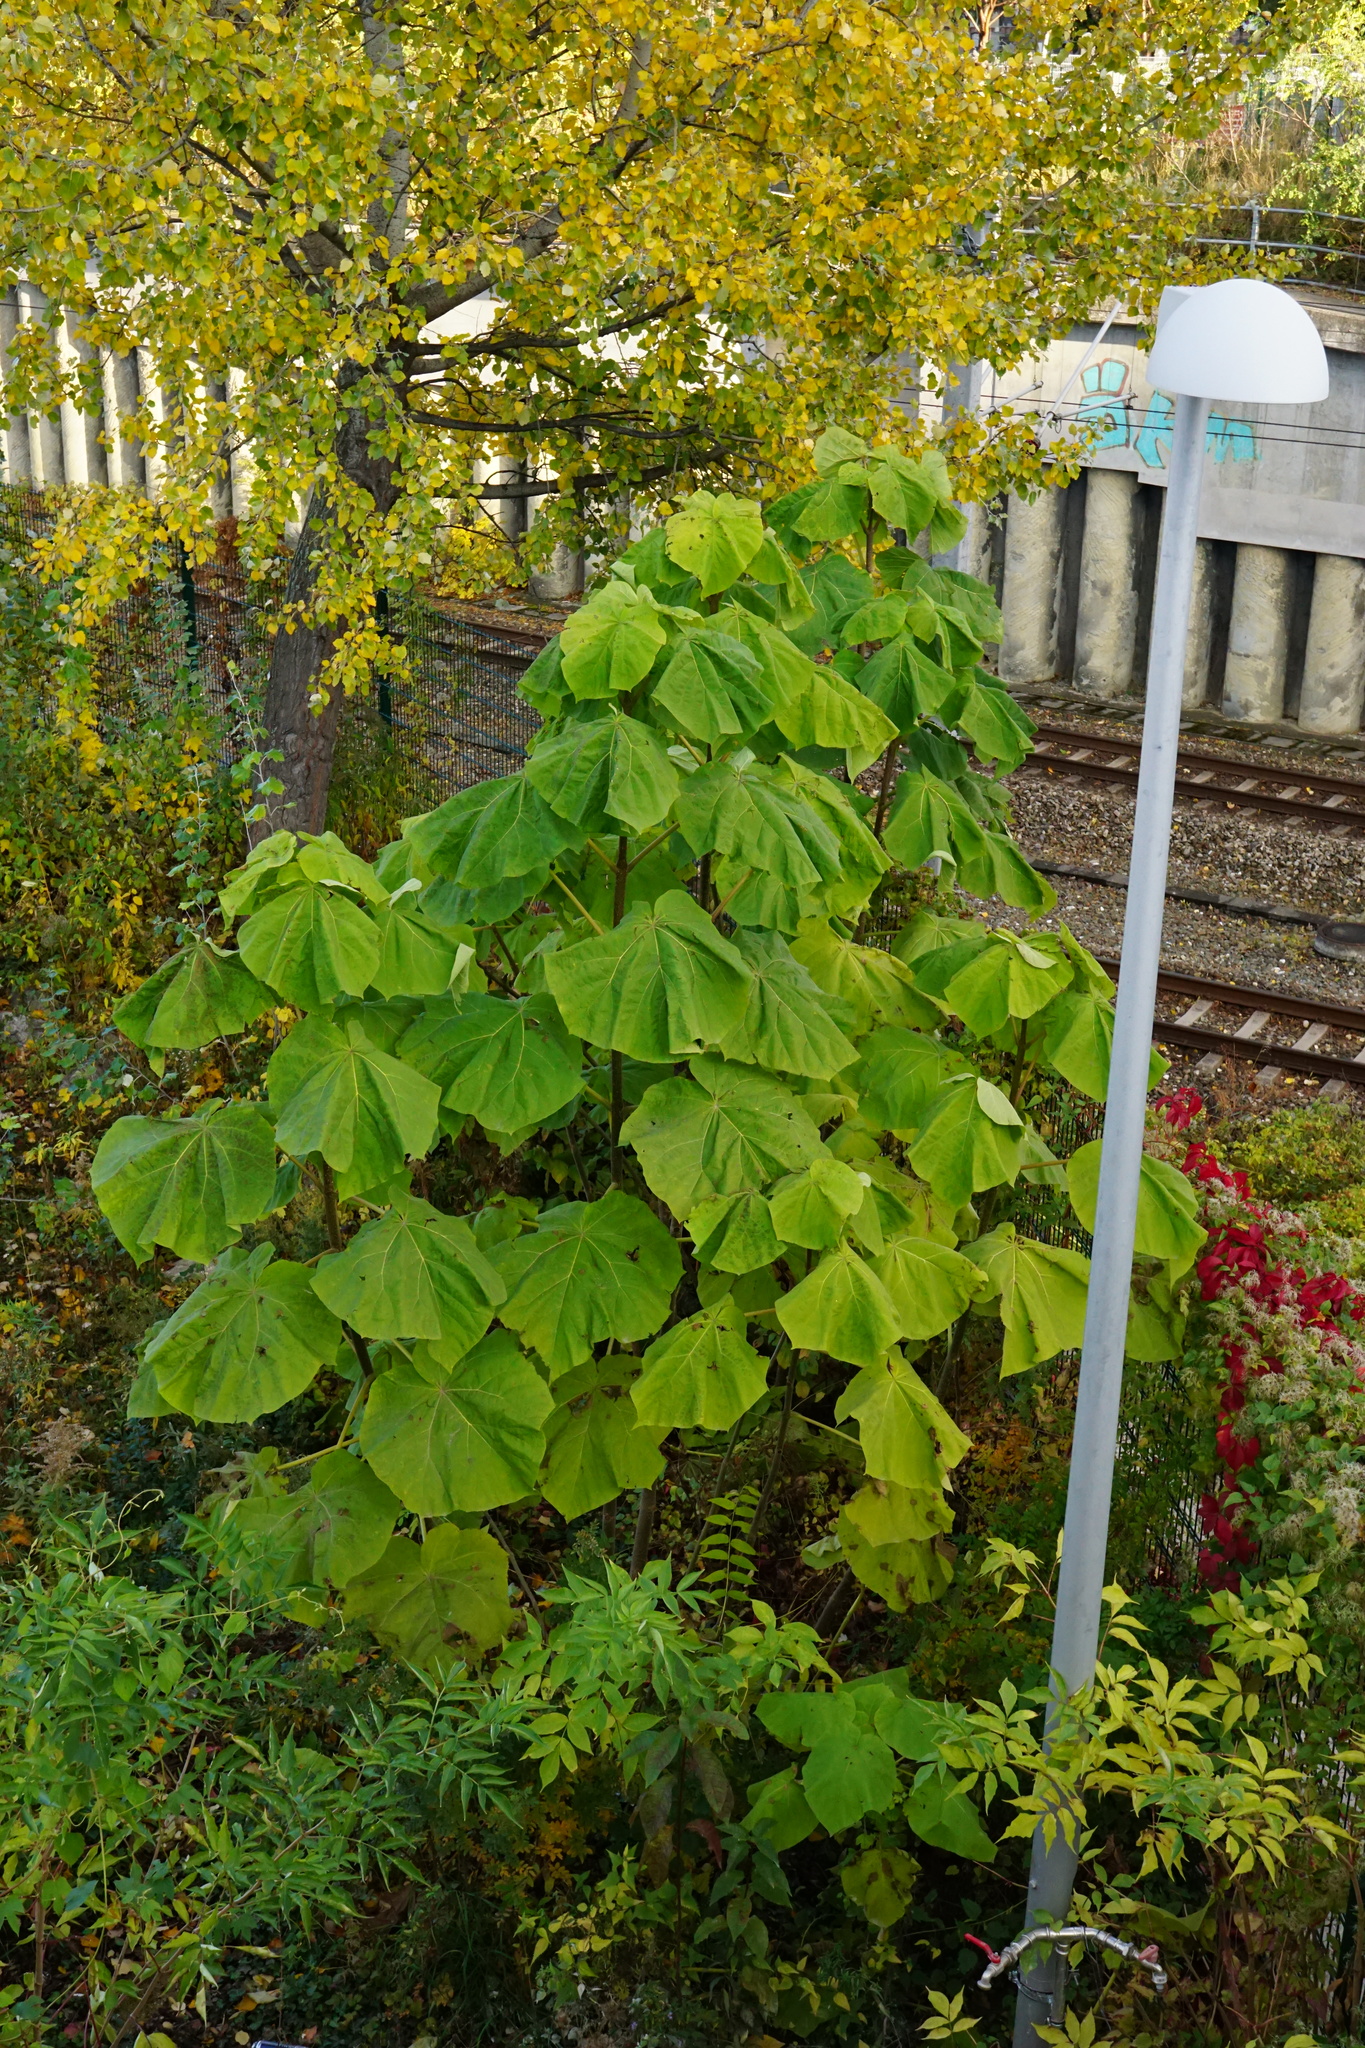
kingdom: Plantae
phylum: Tracheophyta
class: Magnoliopsida
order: Lamiales
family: Paulowniaceae
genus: Paulownia
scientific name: Paulownia tomentosa
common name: Foxglove-tree
